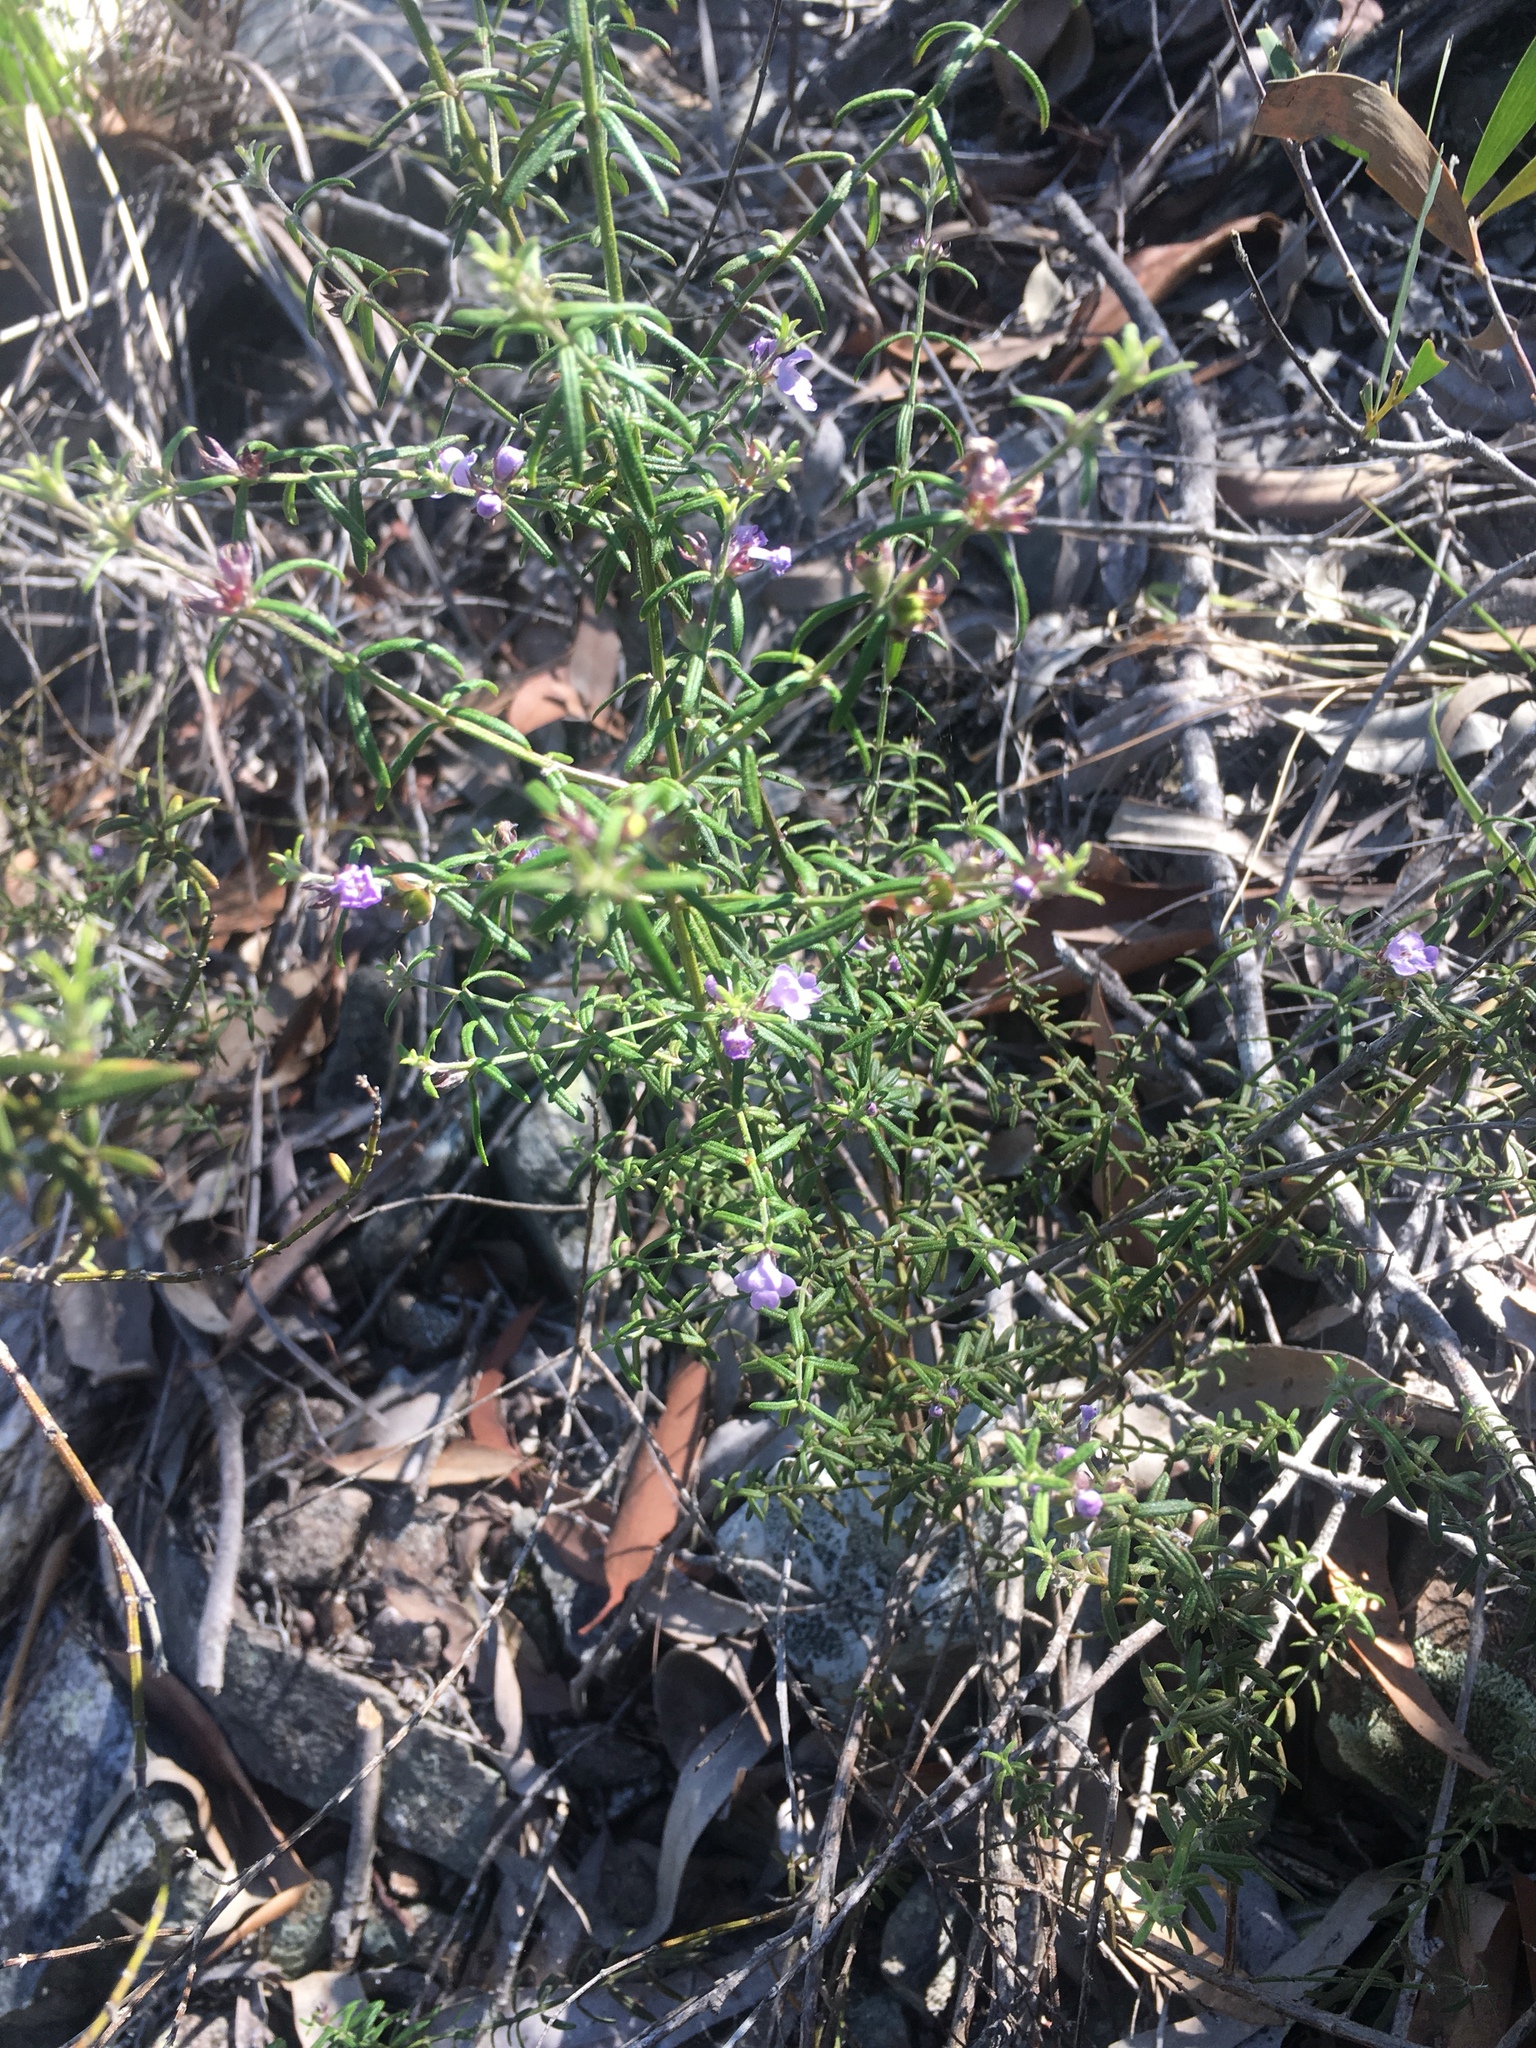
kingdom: Plantae
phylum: Tracheophyta
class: Magnoliopsida
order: Lamiales
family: Lamiaceae
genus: Westringia
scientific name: Westringia eremicola
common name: Slender western-rosemary
